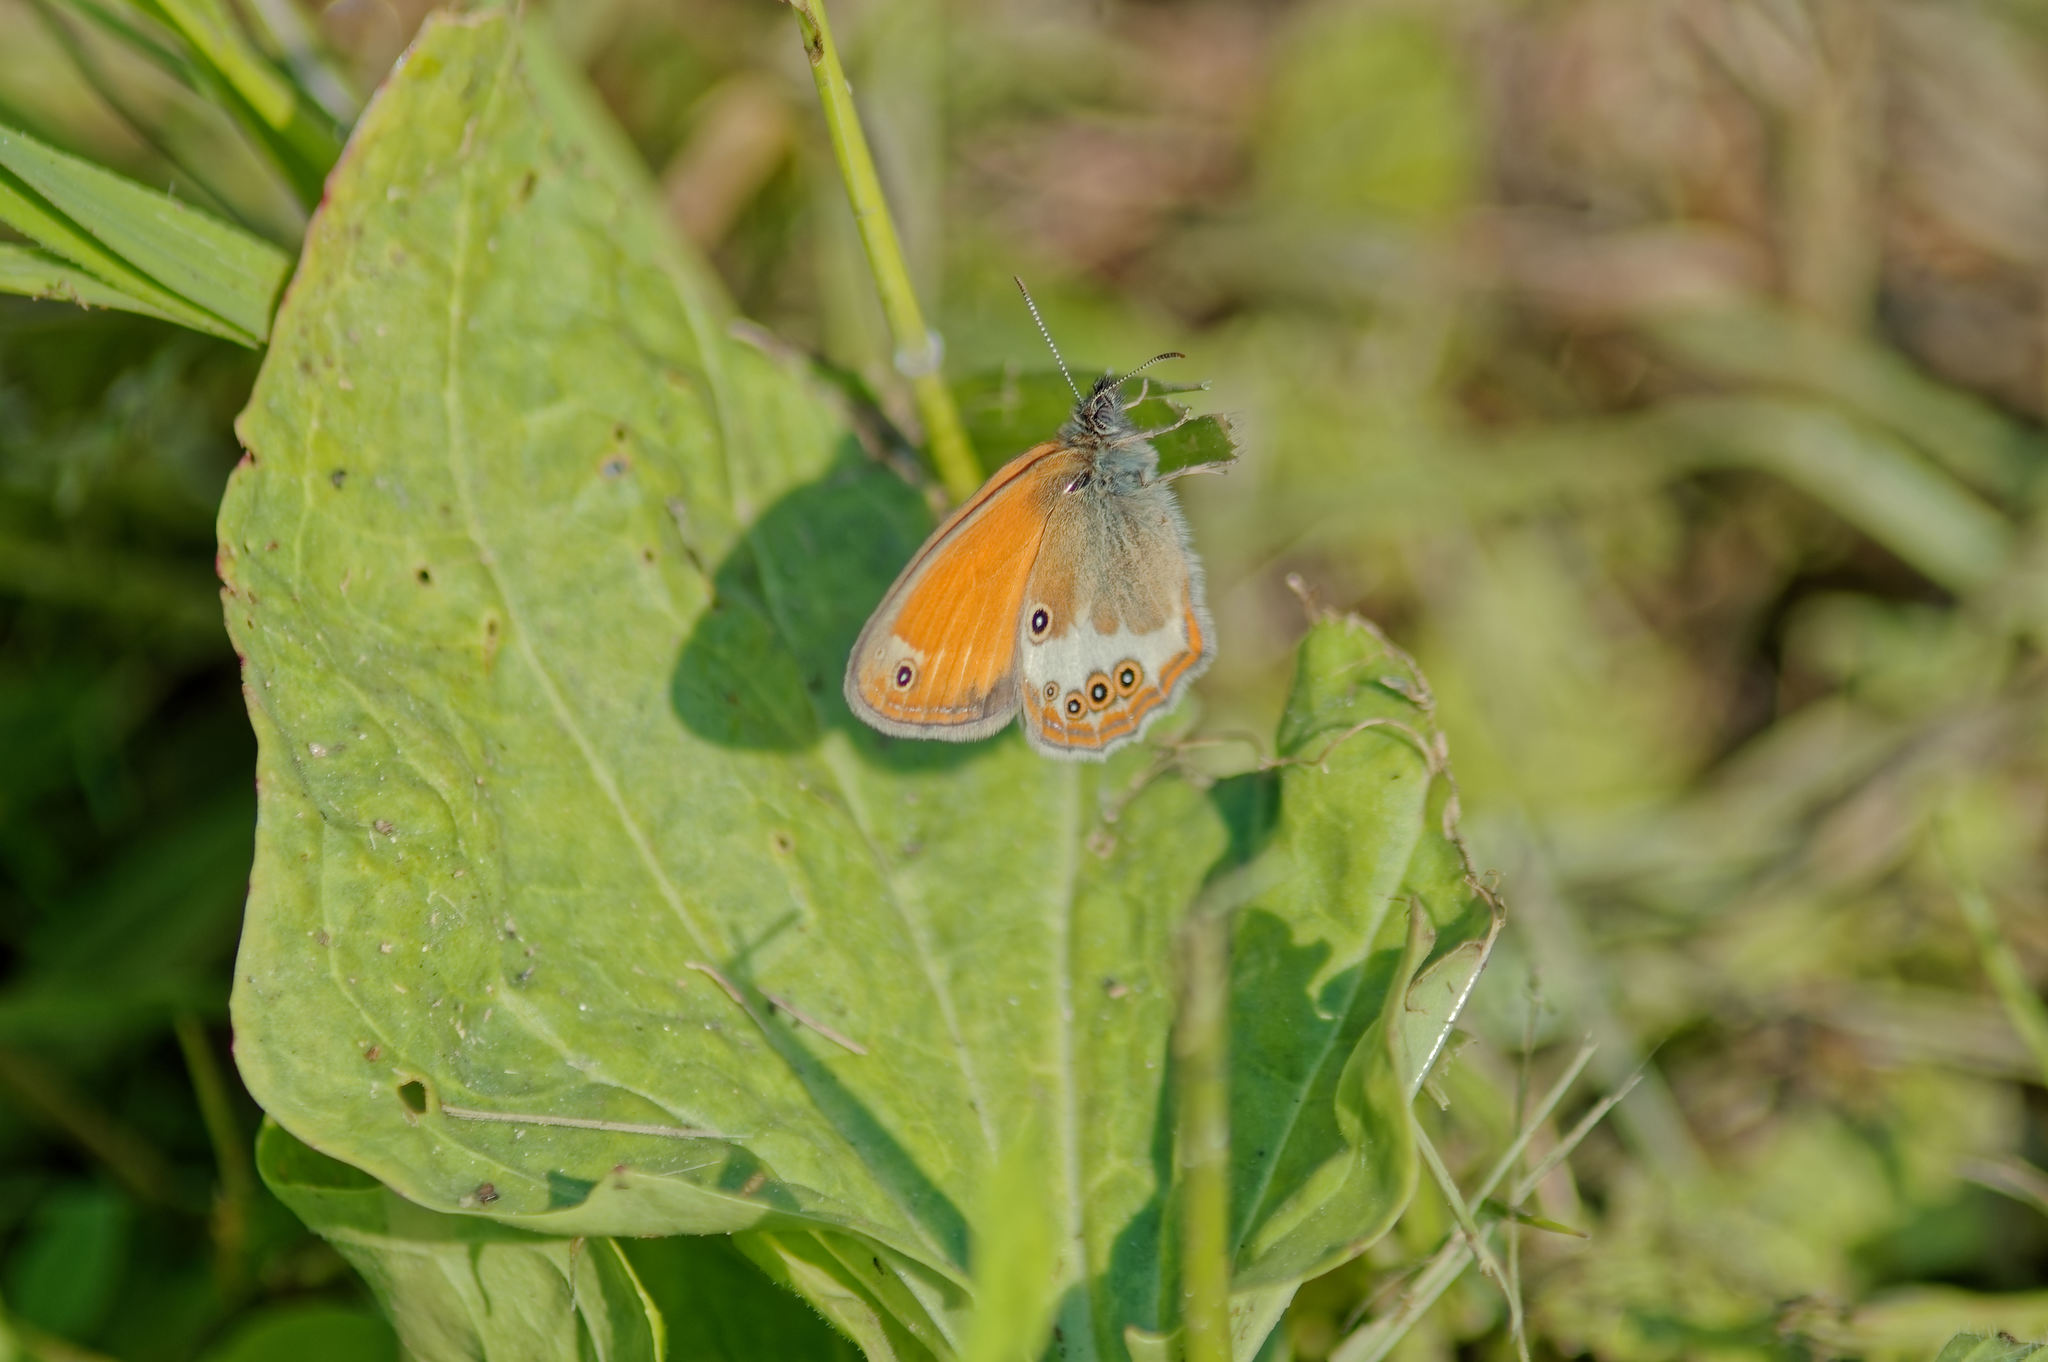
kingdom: Animalia
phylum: Arthropoda
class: Insecta
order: Lepidoptera
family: Nymphalidae
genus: Coenonympha
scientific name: Coenonympha arcania
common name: Pearly heath
